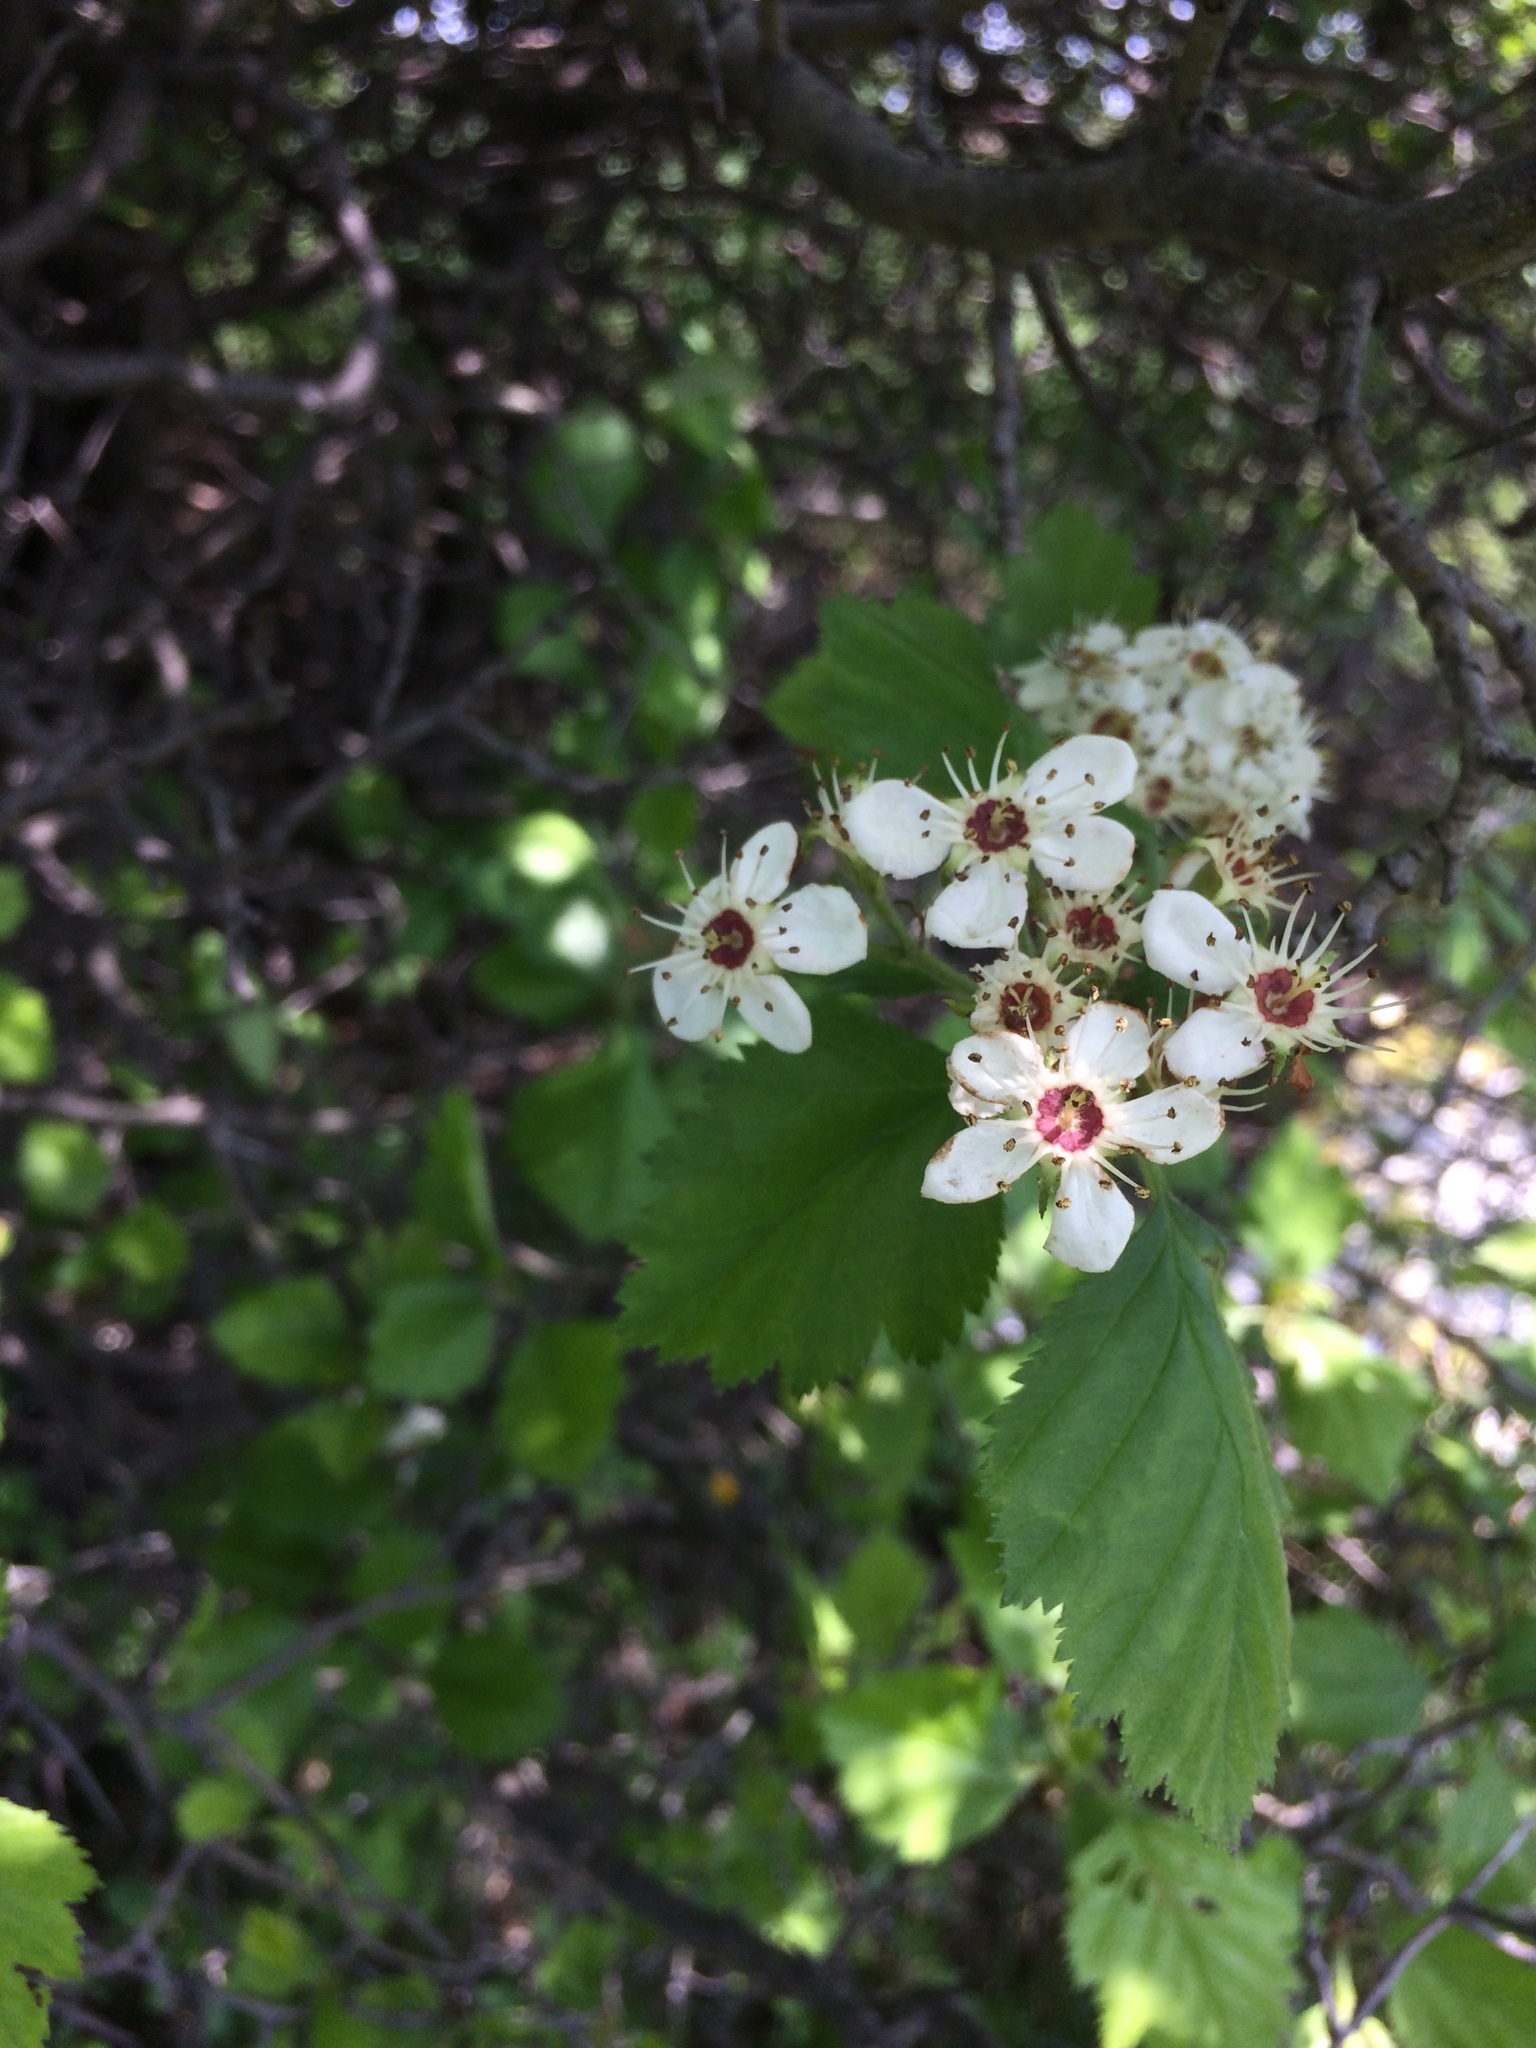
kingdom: Plantae
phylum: Tracheophyta
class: Magnoliopsida
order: Rosales
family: Rosaceae
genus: Crataegus
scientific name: Crataegus submollis
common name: Hairy cockspurthorn
